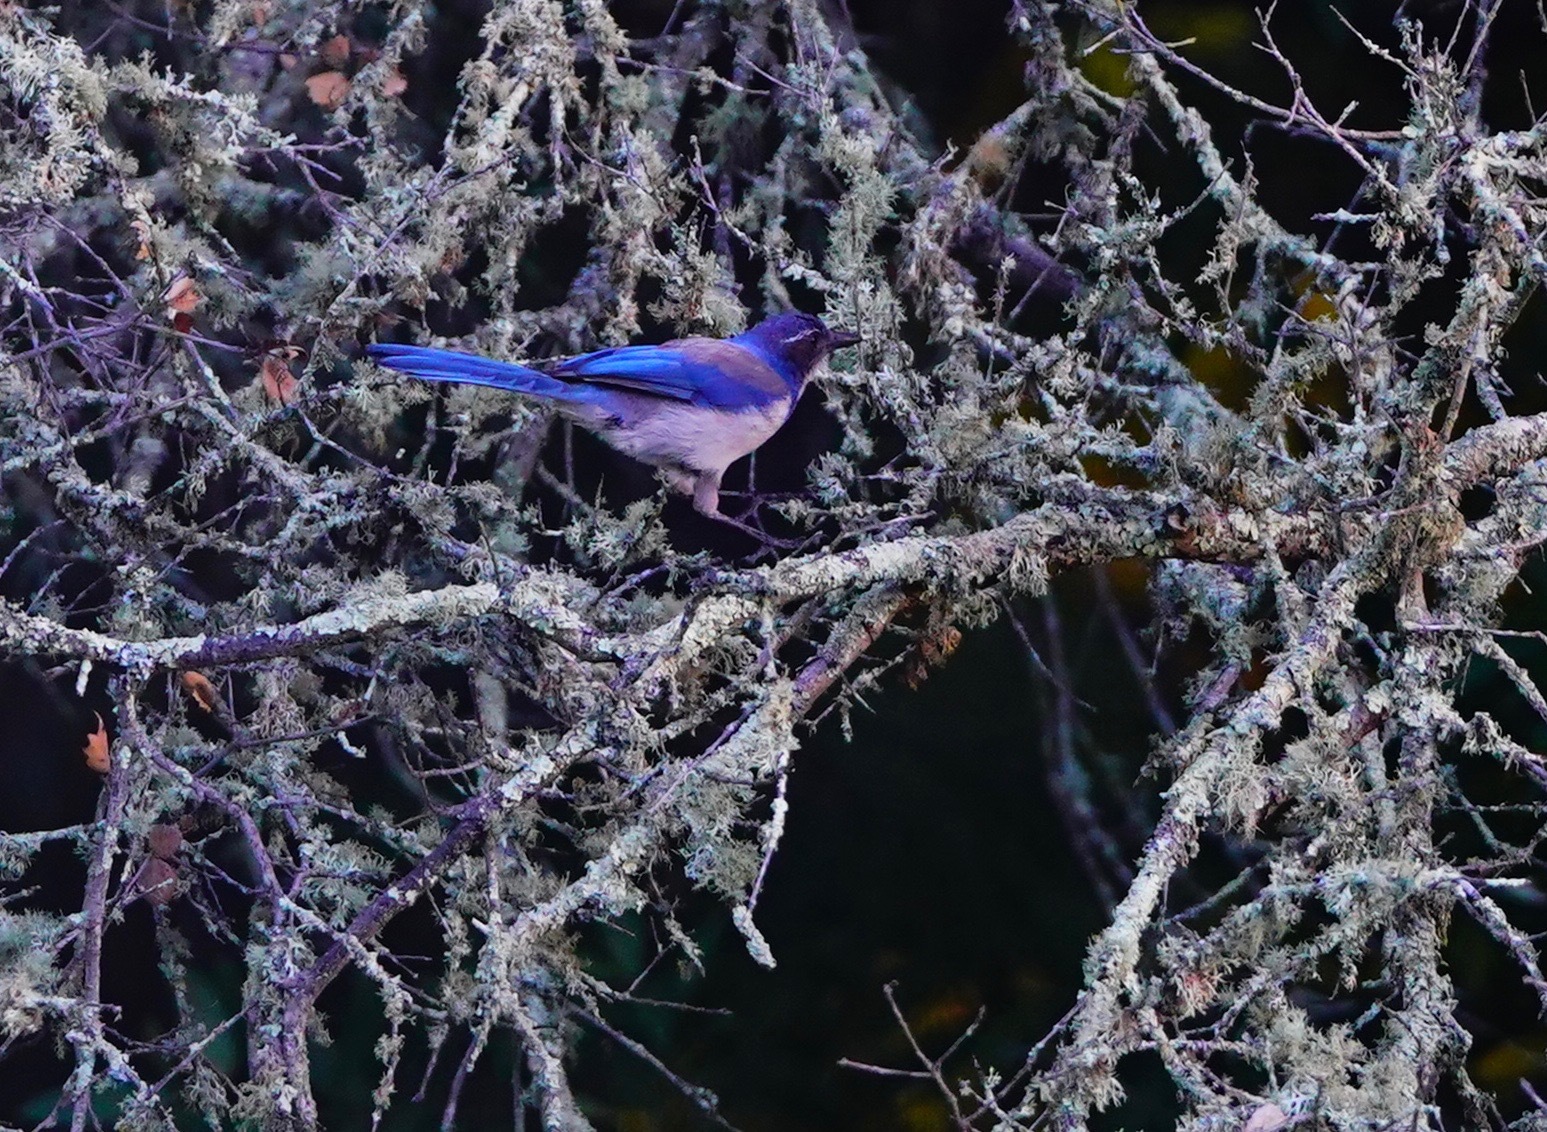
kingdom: Animalia
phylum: Chordata
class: Aves
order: Passeriformes
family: Corvidae
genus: Aphelocoma
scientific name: Aphelocoma californica
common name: California scrub-jay
